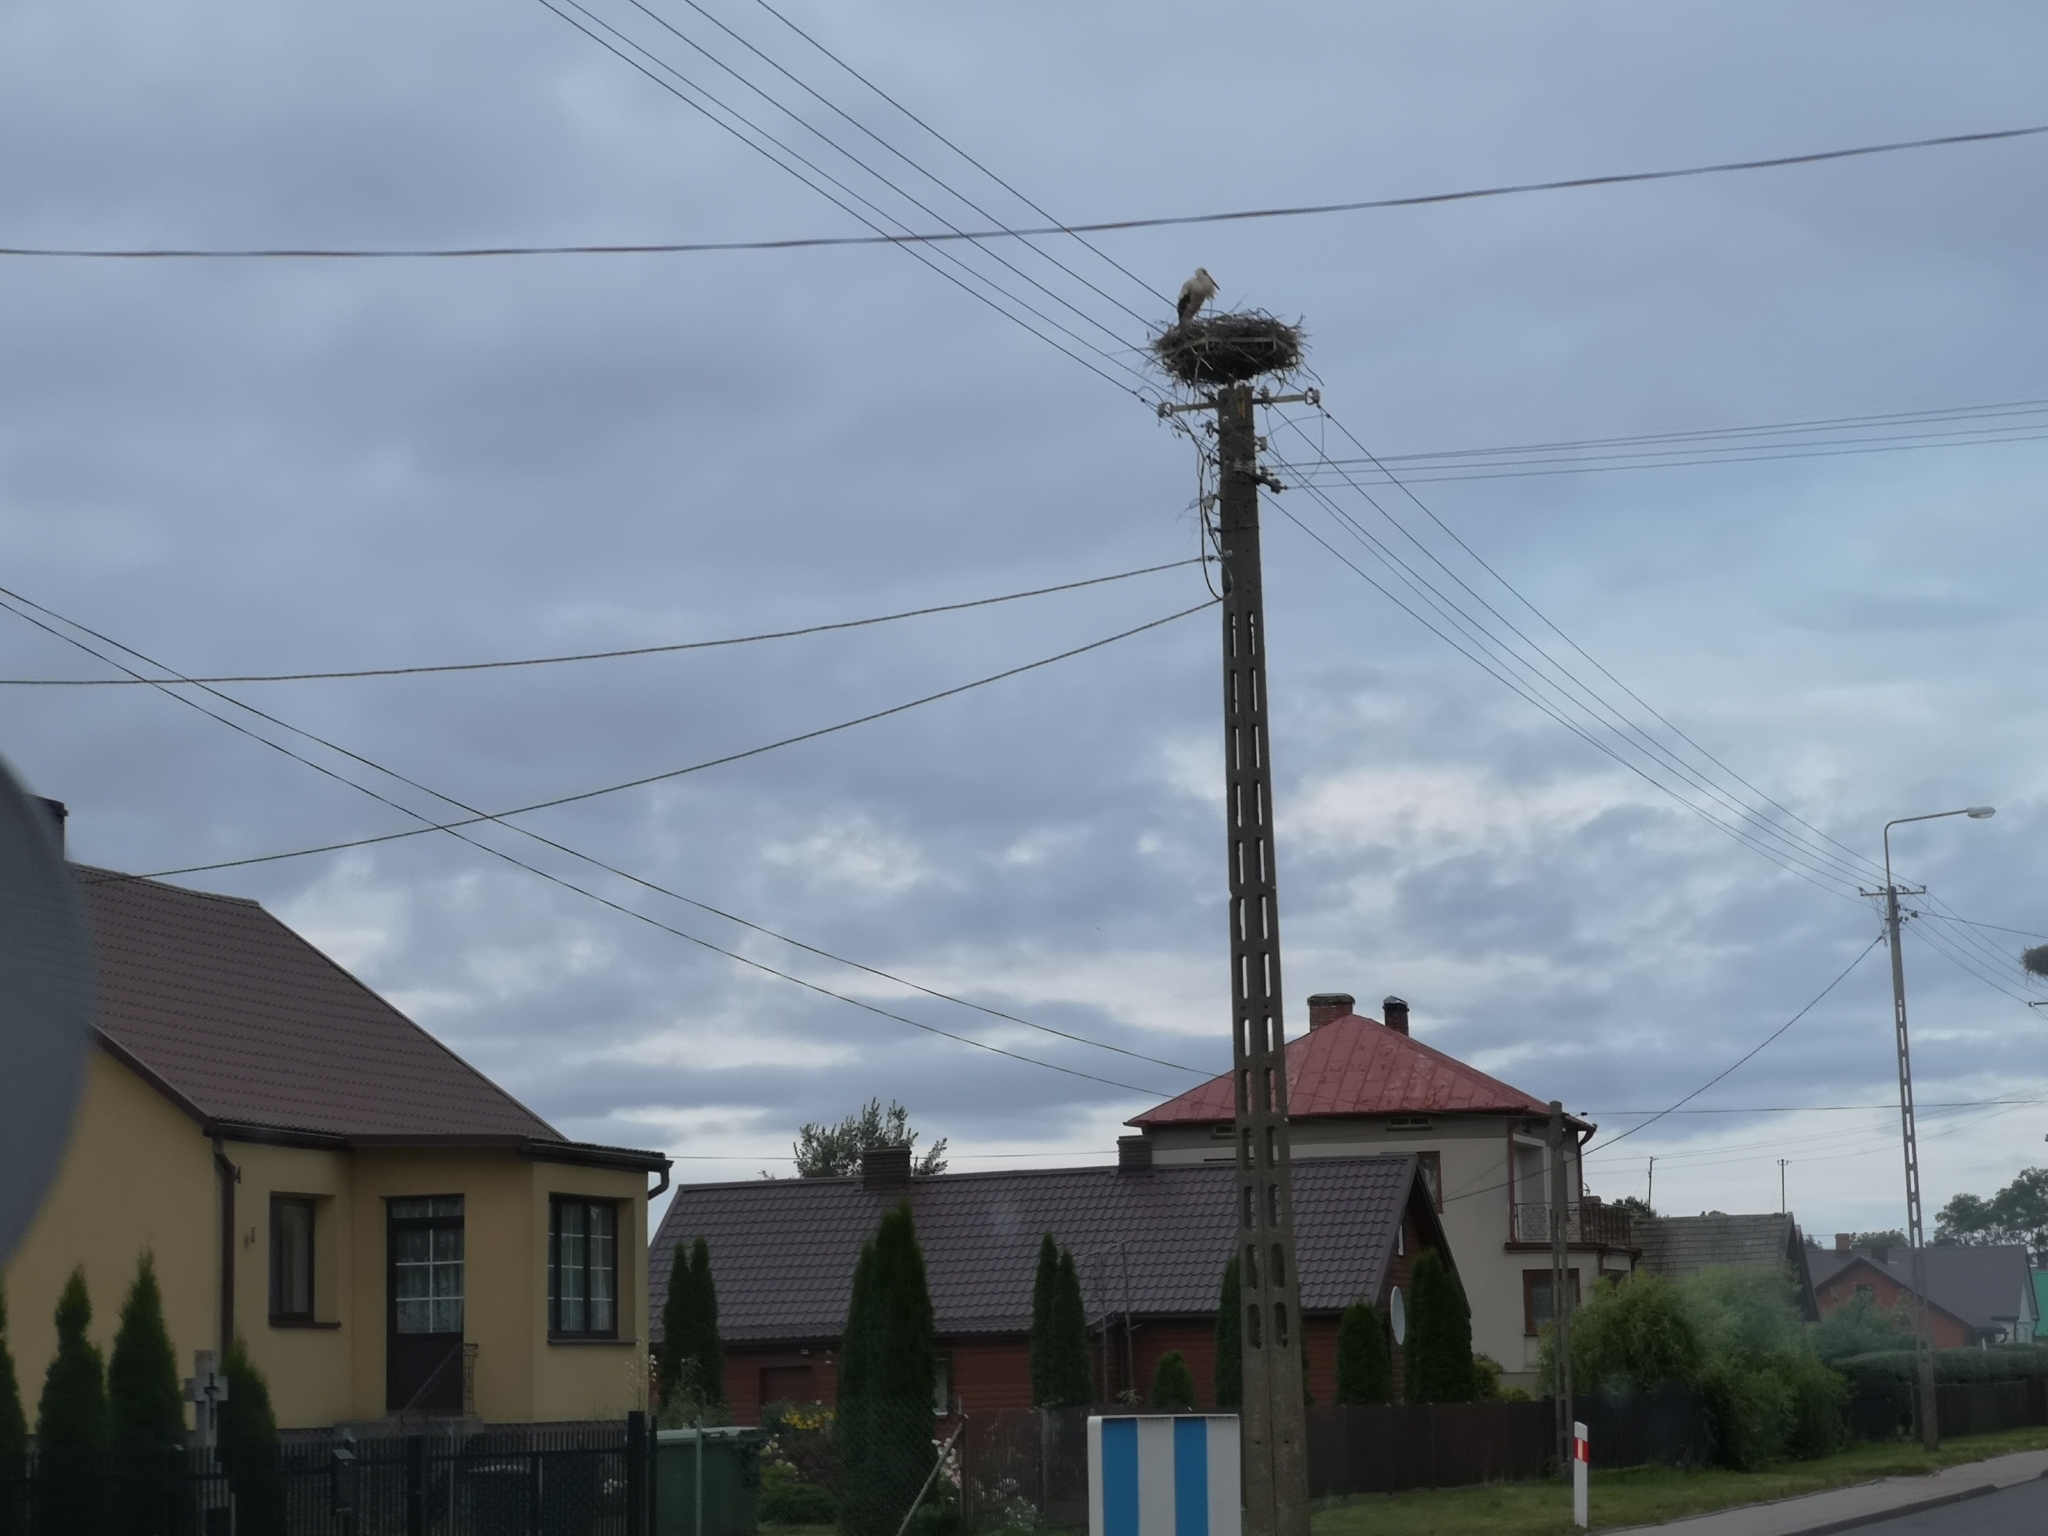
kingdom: Animalia
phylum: Chordata
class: Aves
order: Ciconiiformes
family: Ciconiidae
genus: Ciconia
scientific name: Ciconia ciconia
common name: White stork
